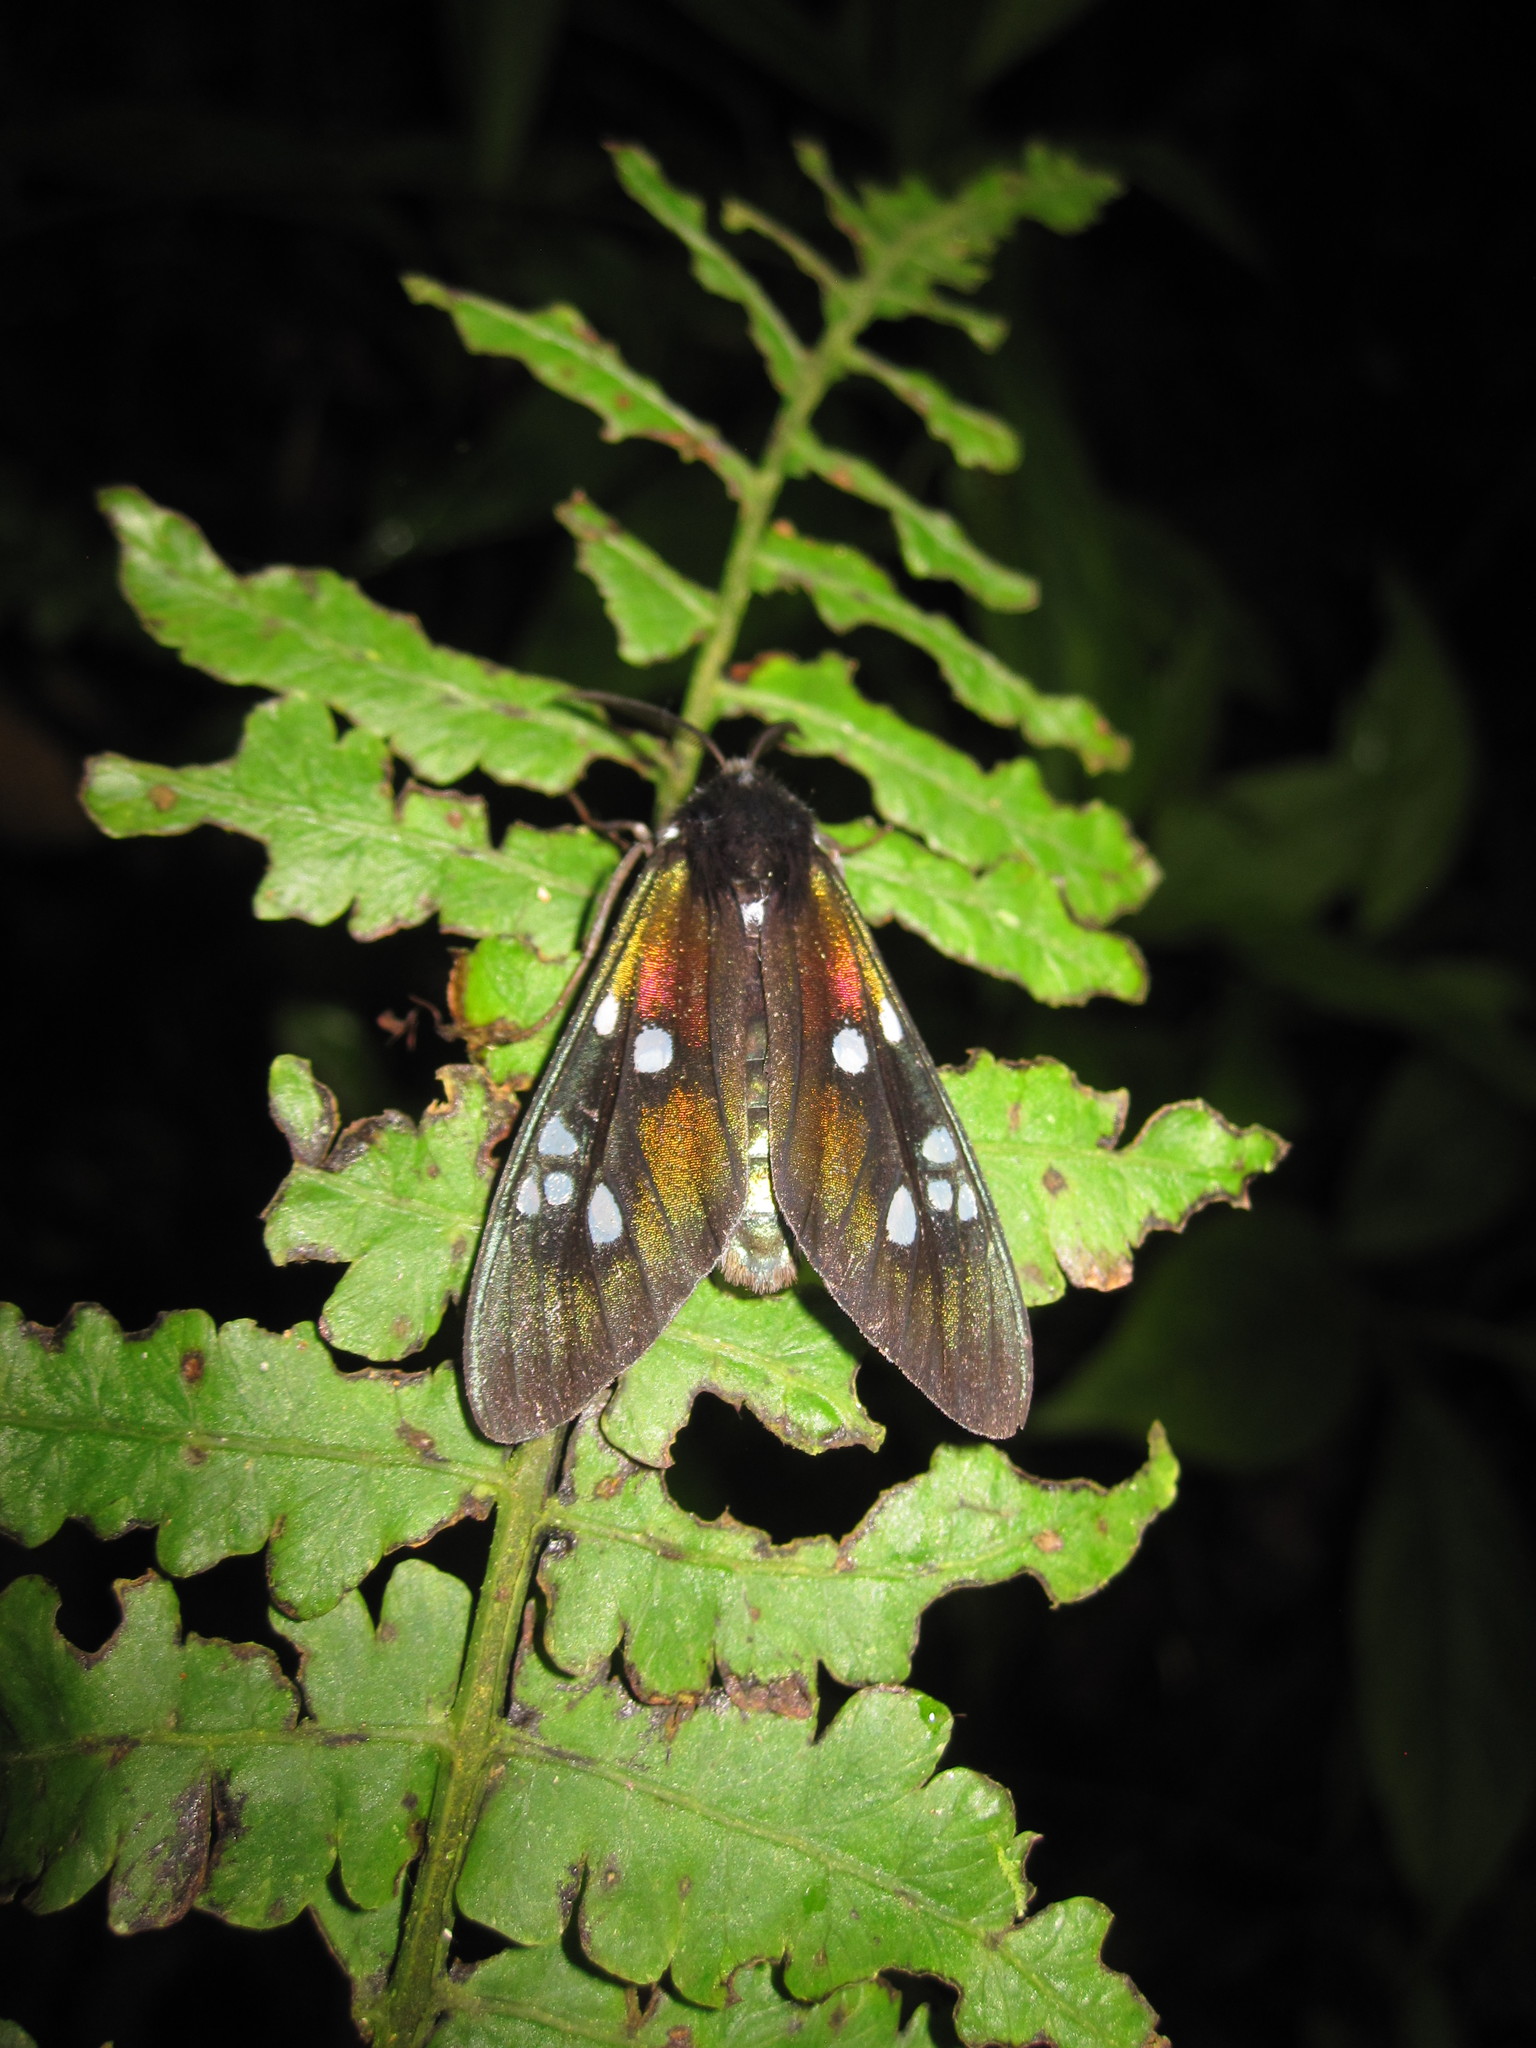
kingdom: Animalia
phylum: Arthropoda
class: Insecta
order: Lepidoptera
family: Erebidae
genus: Chrysocale
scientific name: Chrysocale gigantea
